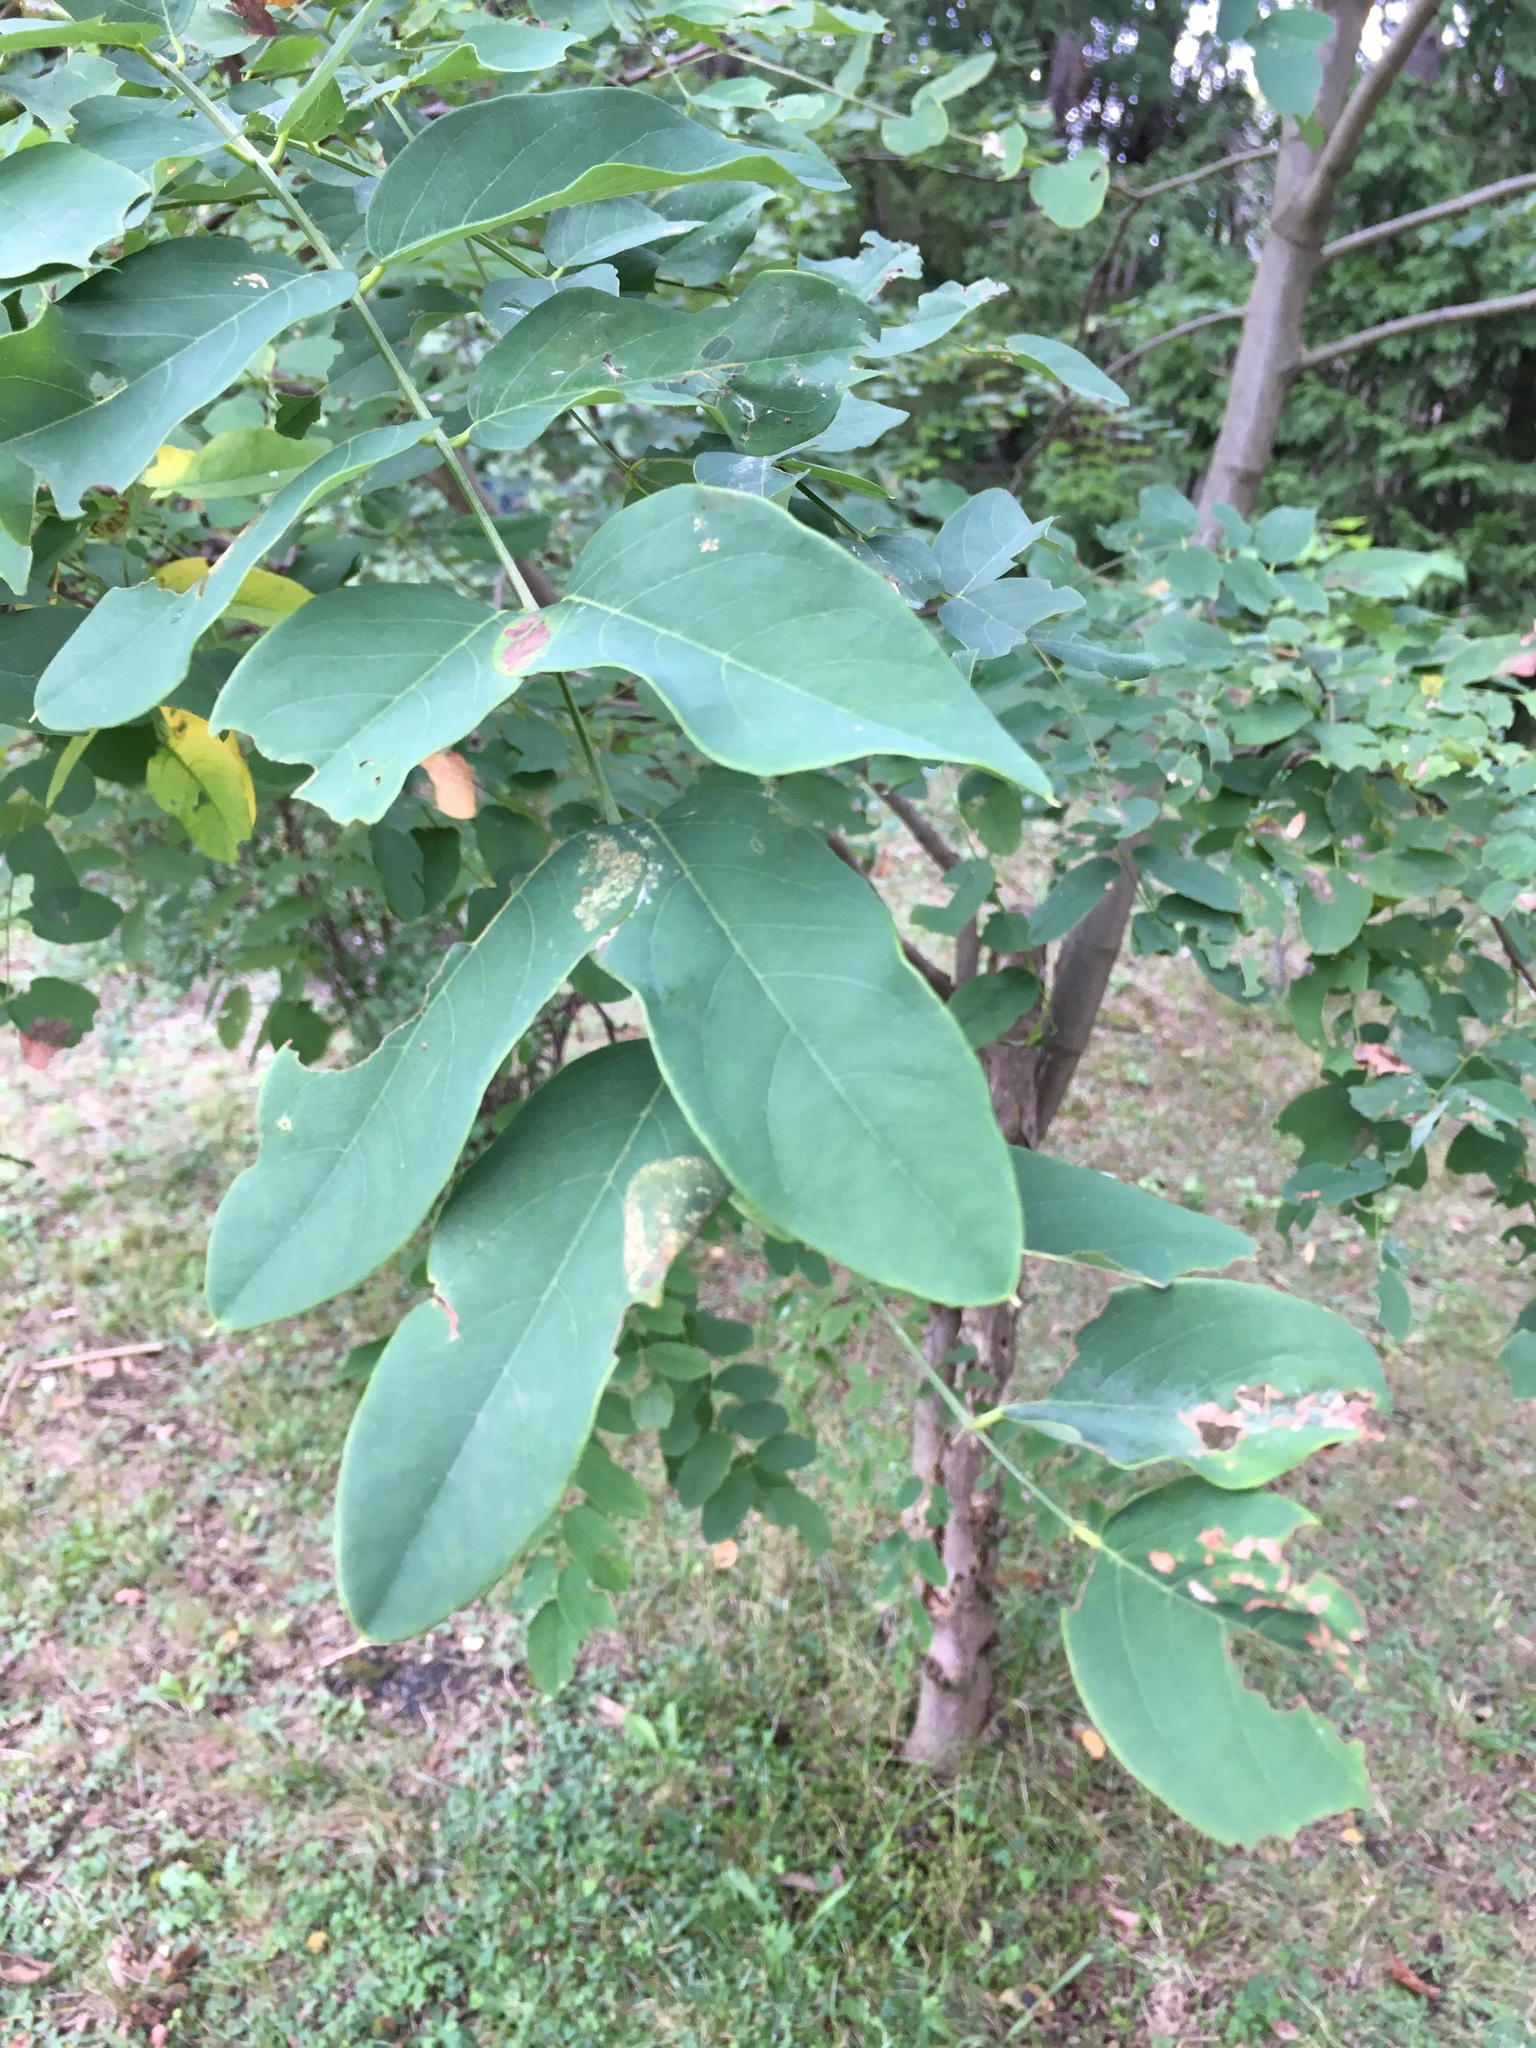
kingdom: Plantae
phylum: Tracheophyta
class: Magnoliopsida
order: Fabales
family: Fabaceae
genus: Robinia
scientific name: Robinia pseudoacacia
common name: Black locust
